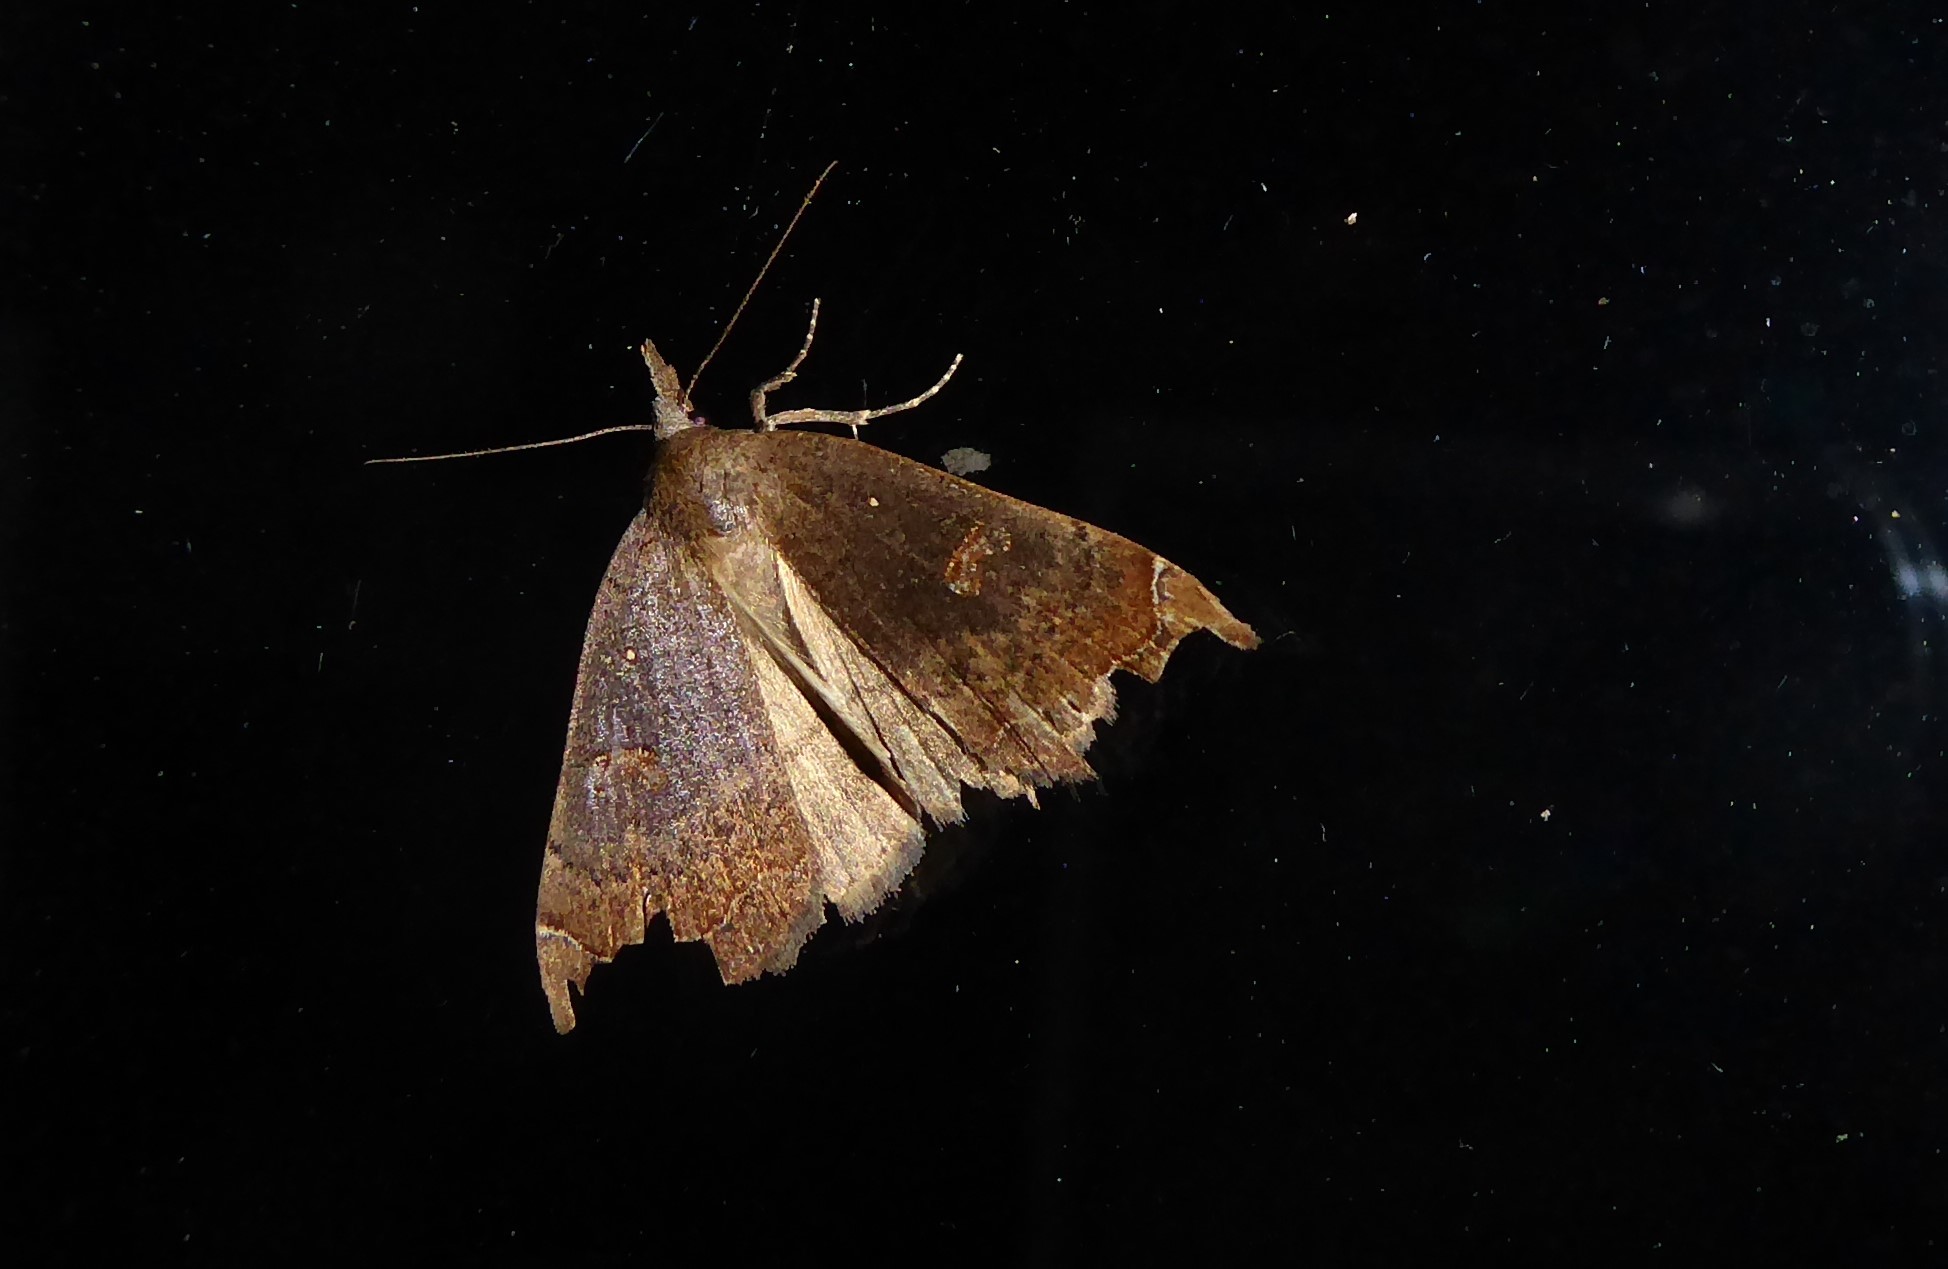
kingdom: Animalia
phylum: Arthropoda
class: Insecta
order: Lepidoptera
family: Erebidae
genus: Rhapsa
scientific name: Rhapsa scotosialis
